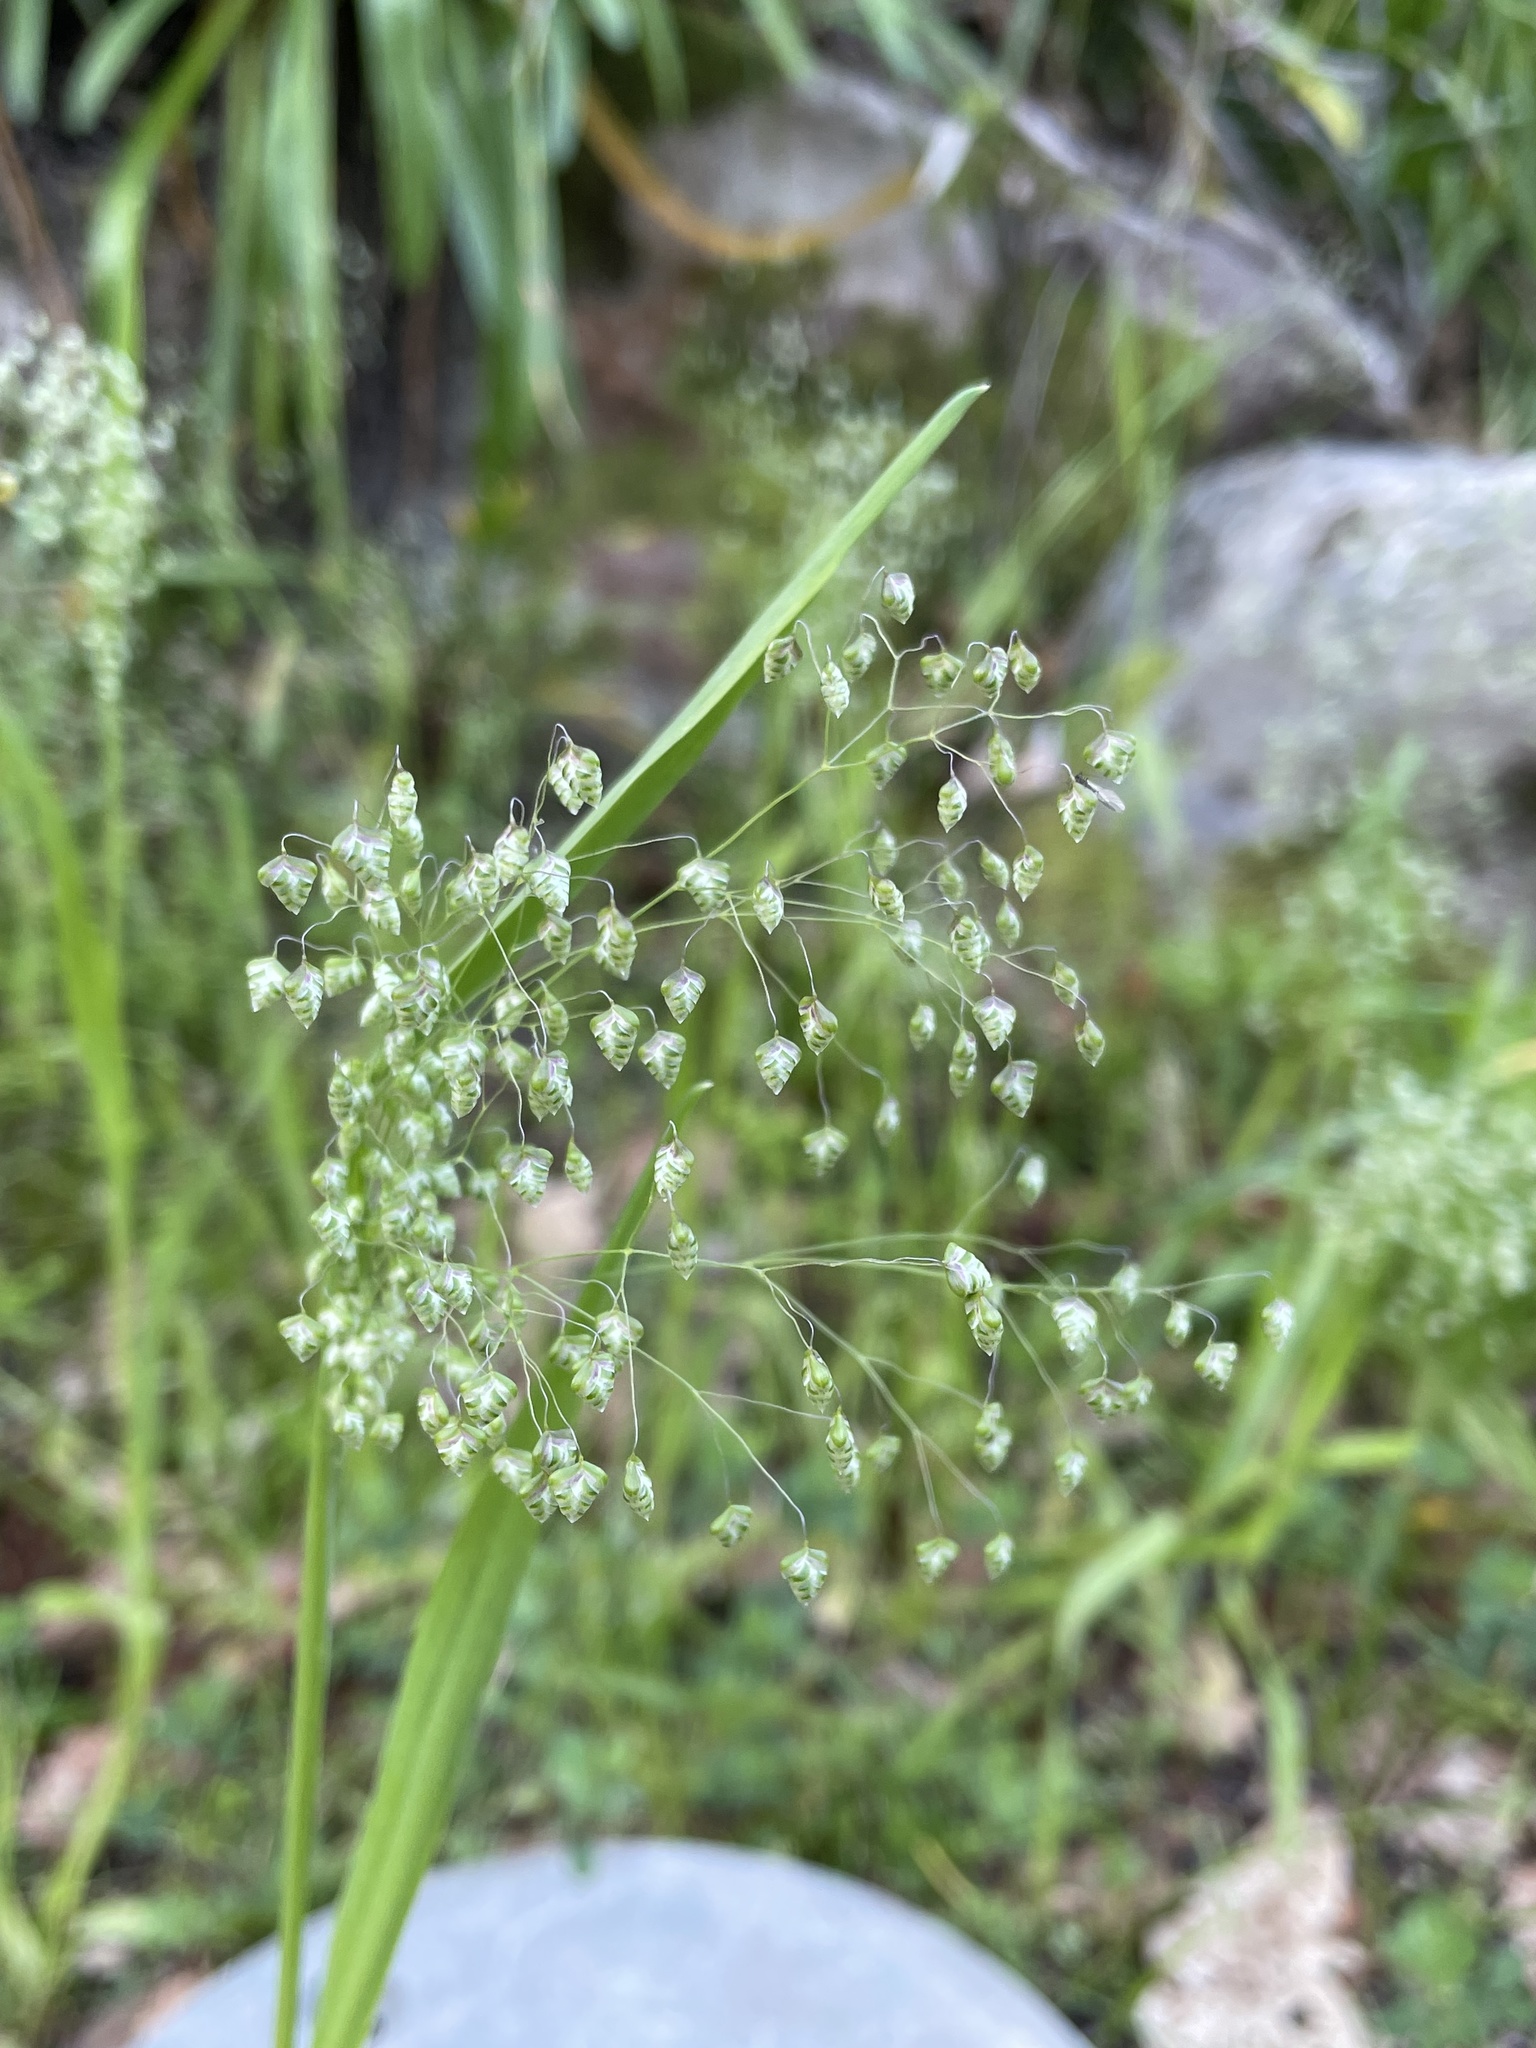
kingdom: Plantae
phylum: Tracheophyta
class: Liliopsida
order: Poales
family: Poaceae
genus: Briza
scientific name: Briza minor
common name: Lesser quaking-grass
